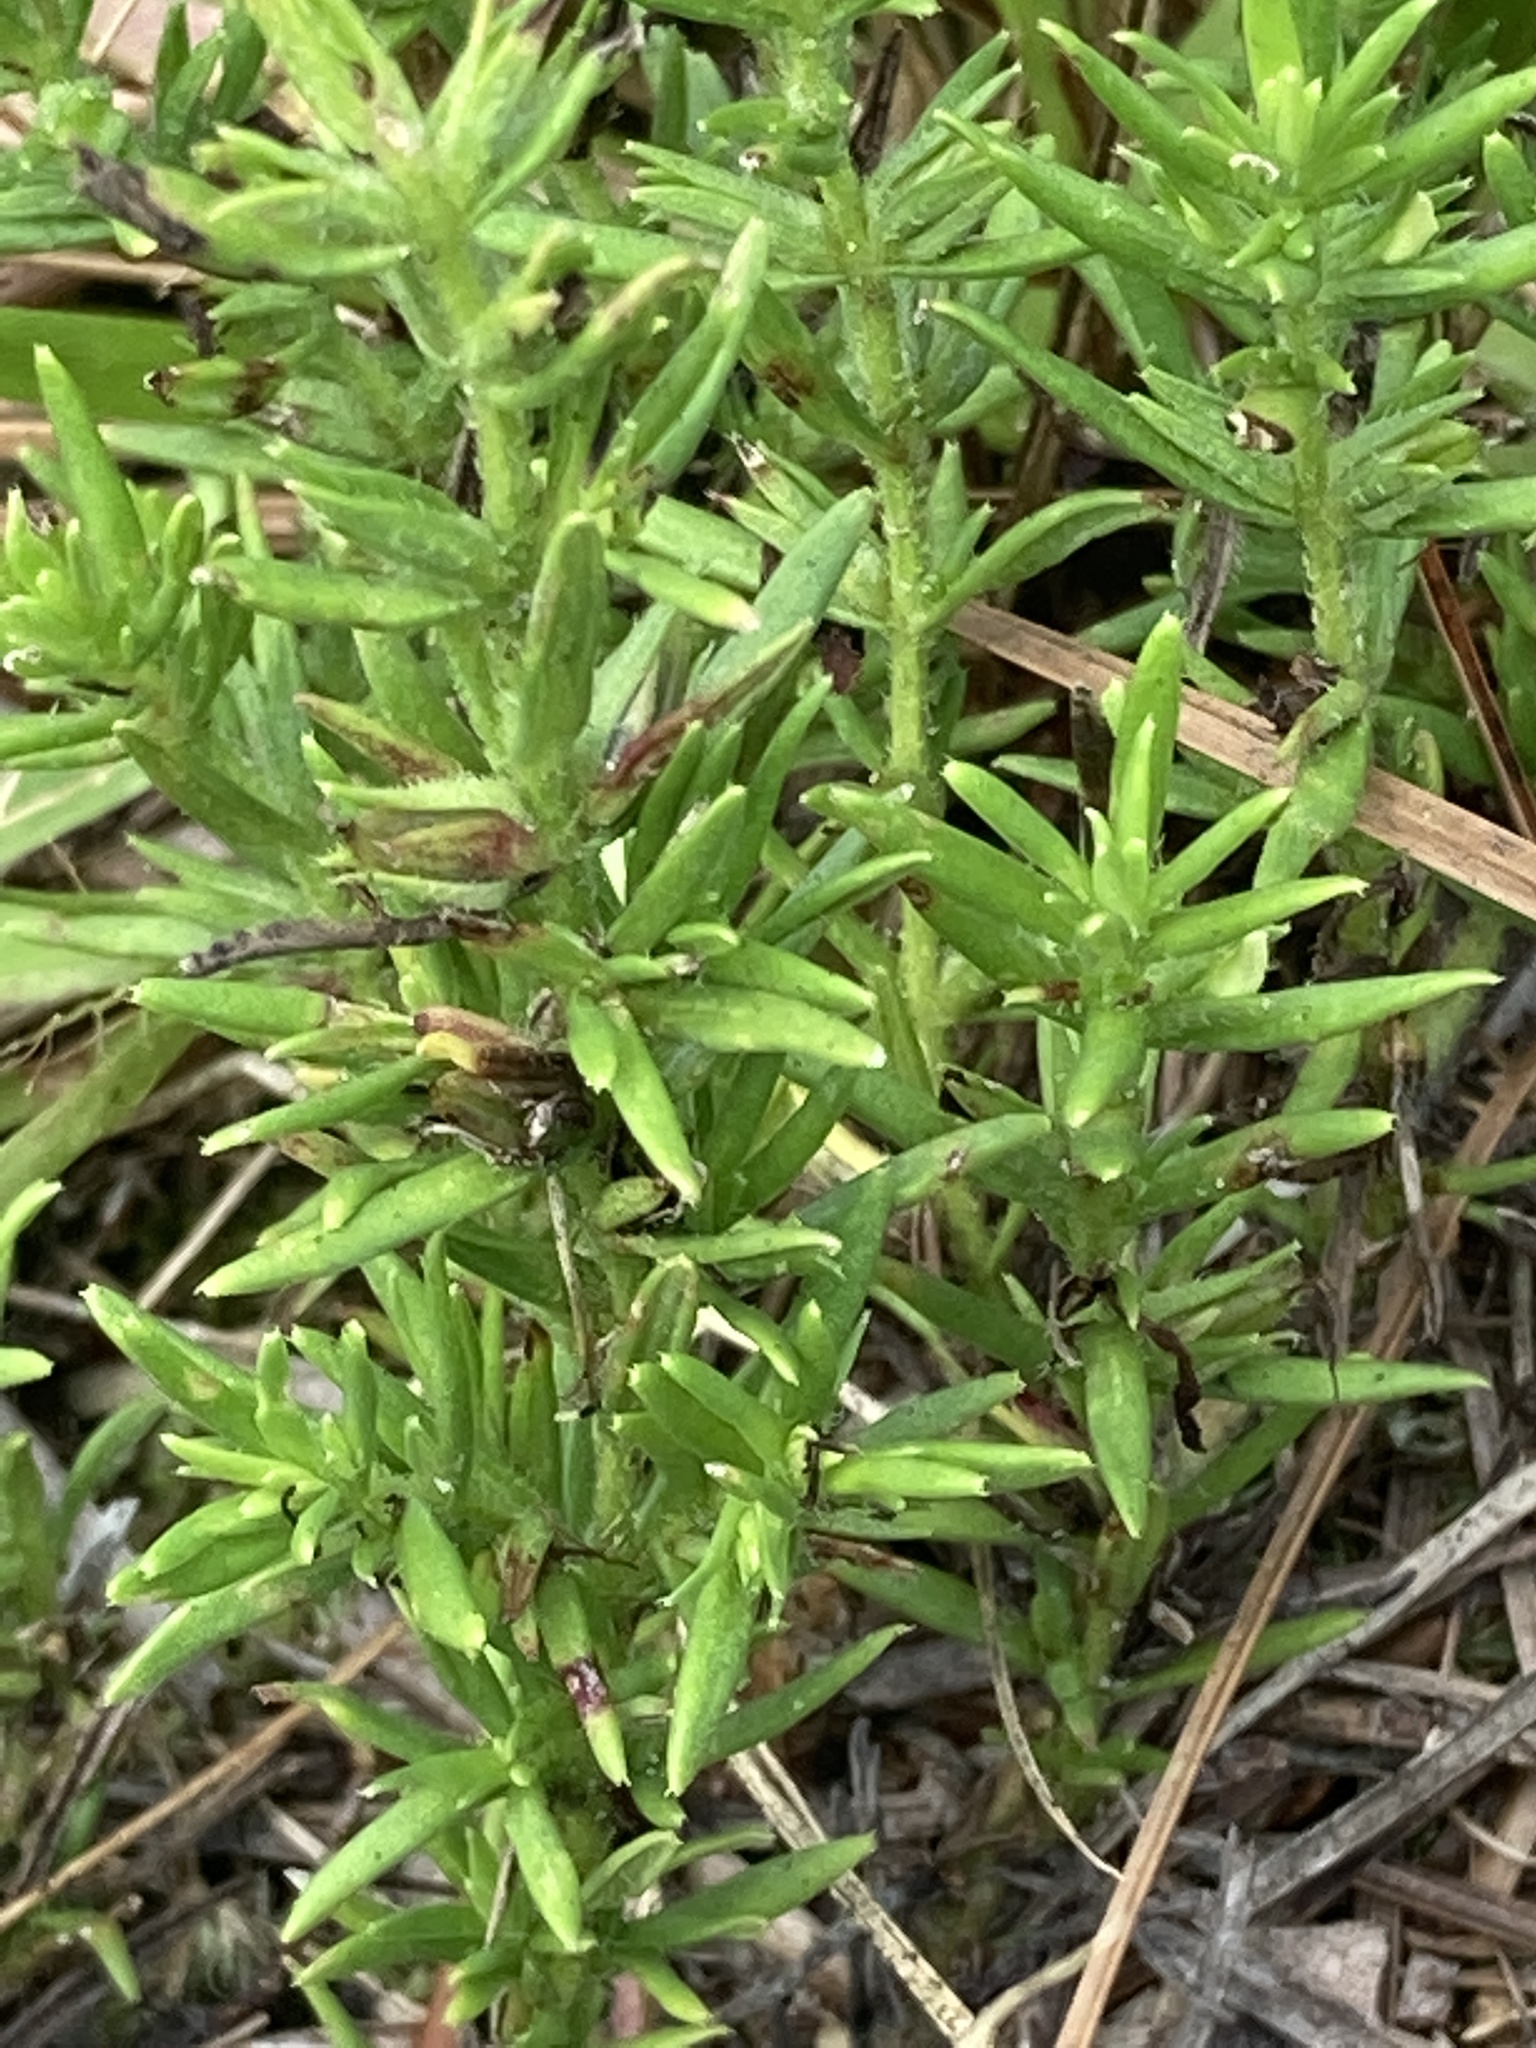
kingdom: Plantae
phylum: Tracheophyta
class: Magnoliopsida
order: Lamiales
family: Plantaginaceae
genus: Gratiola
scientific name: Gratiola hispida
